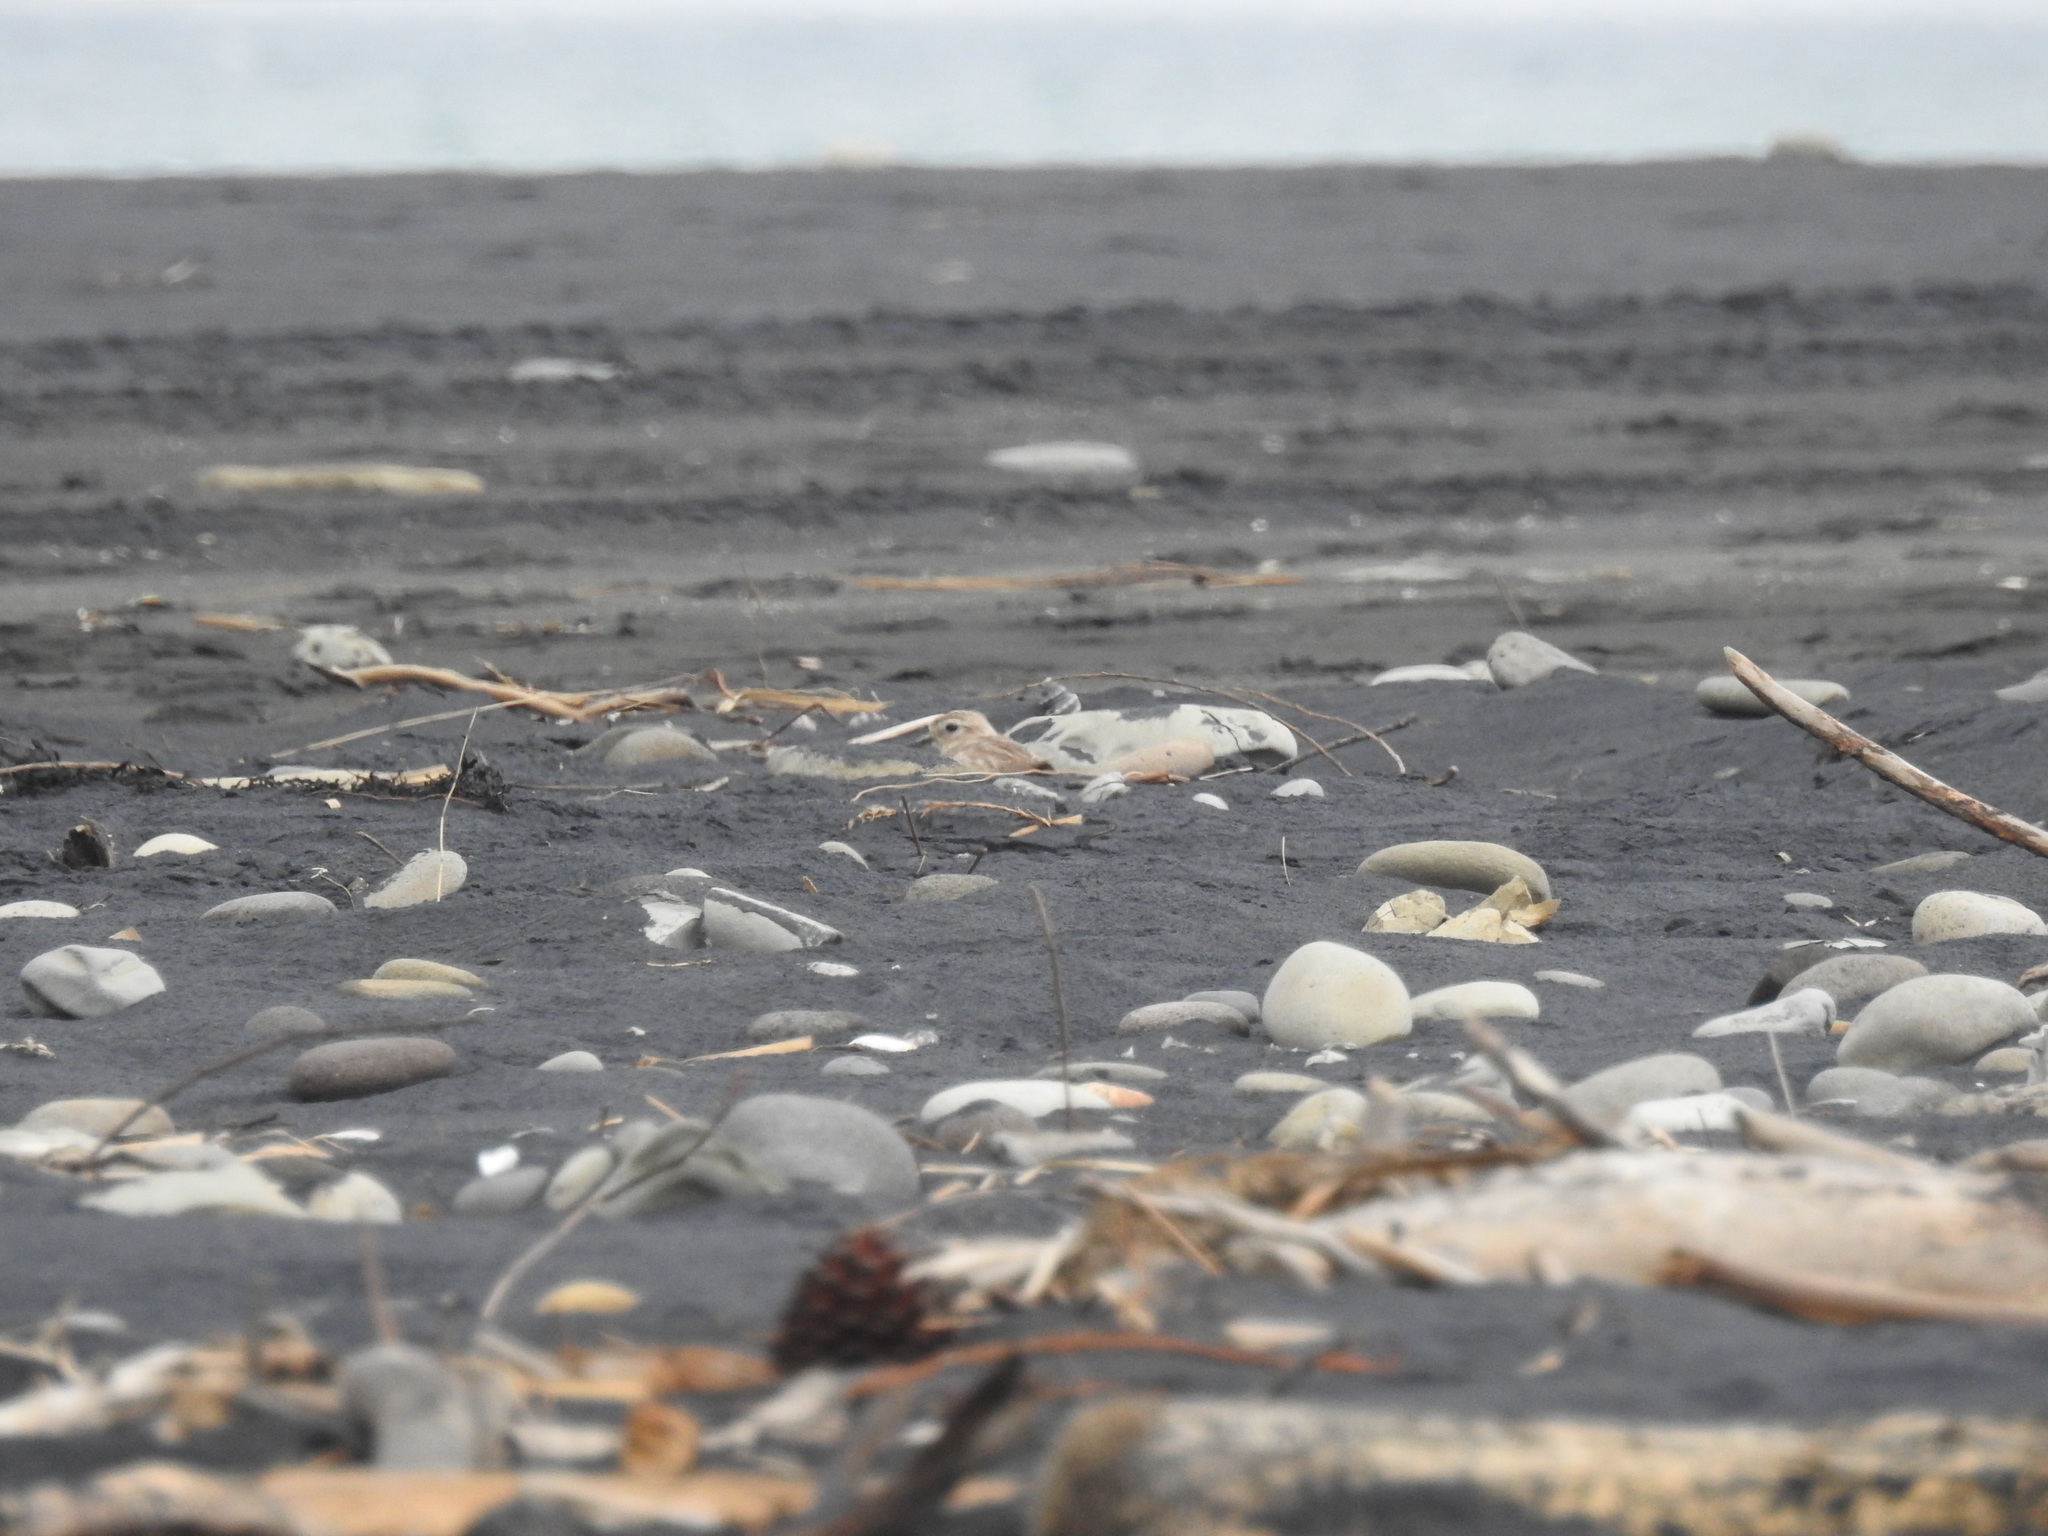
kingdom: Animalia
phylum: Chordata
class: Aves
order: Charadriiformes
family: Charadriidae
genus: Anarhynchus
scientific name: Anarhynchus
